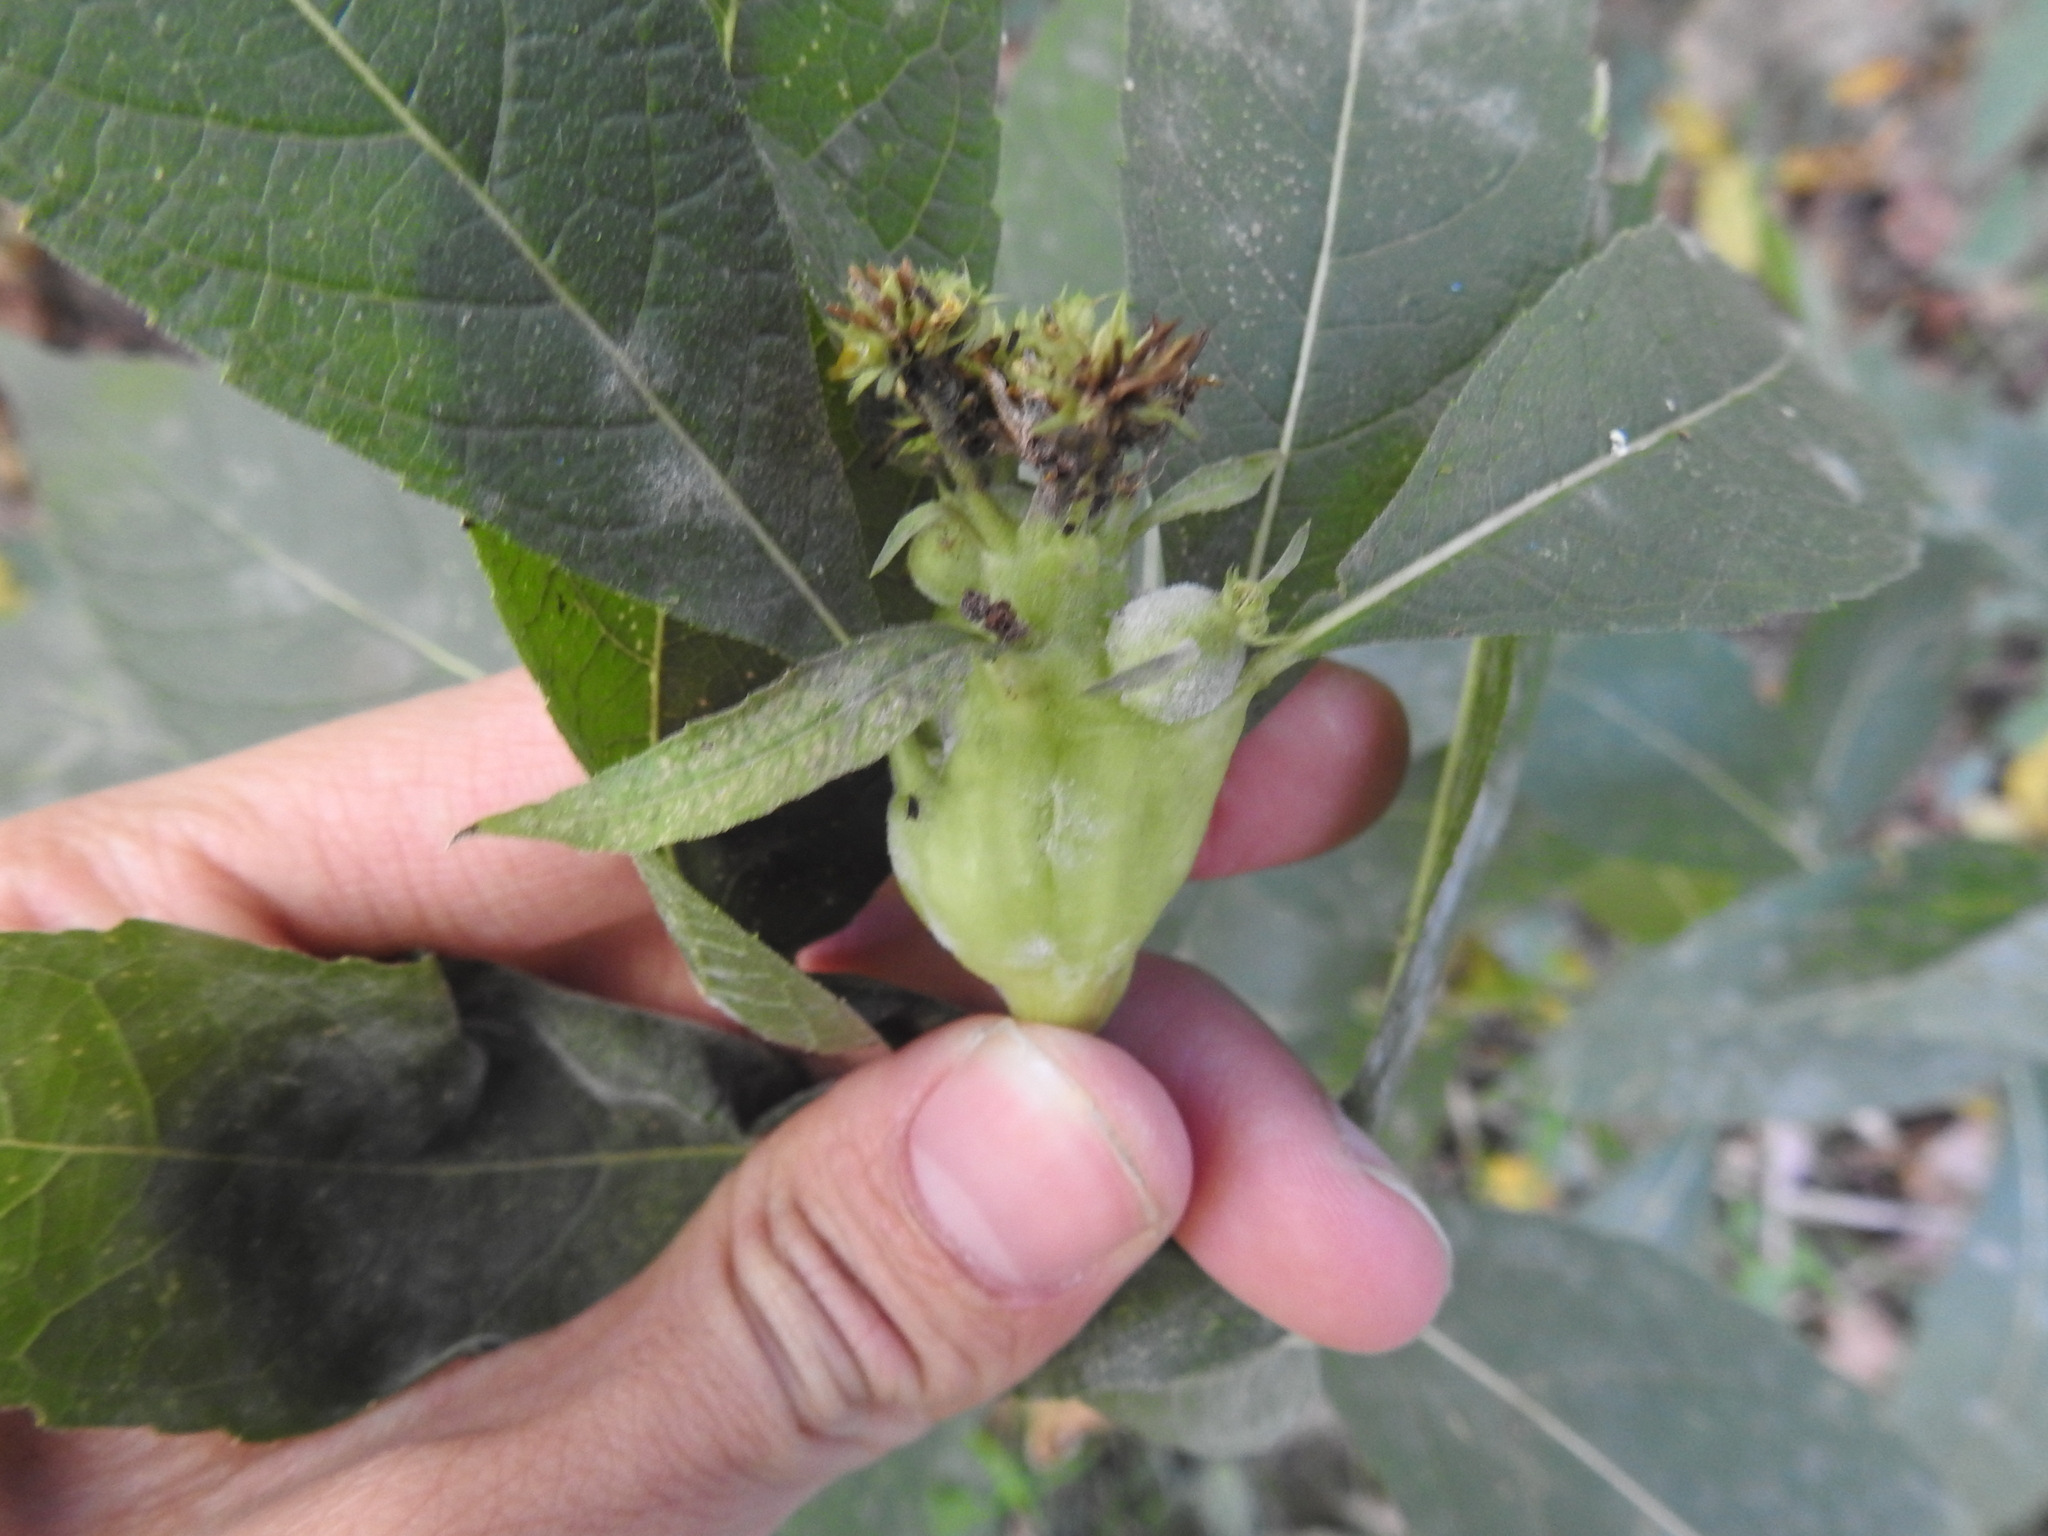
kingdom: Animalia
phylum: Arthropoda
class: Insecta
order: Diptera
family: Cecidomyiidae
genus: Neolasioptera
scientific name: Neolasioptera verbesinae
